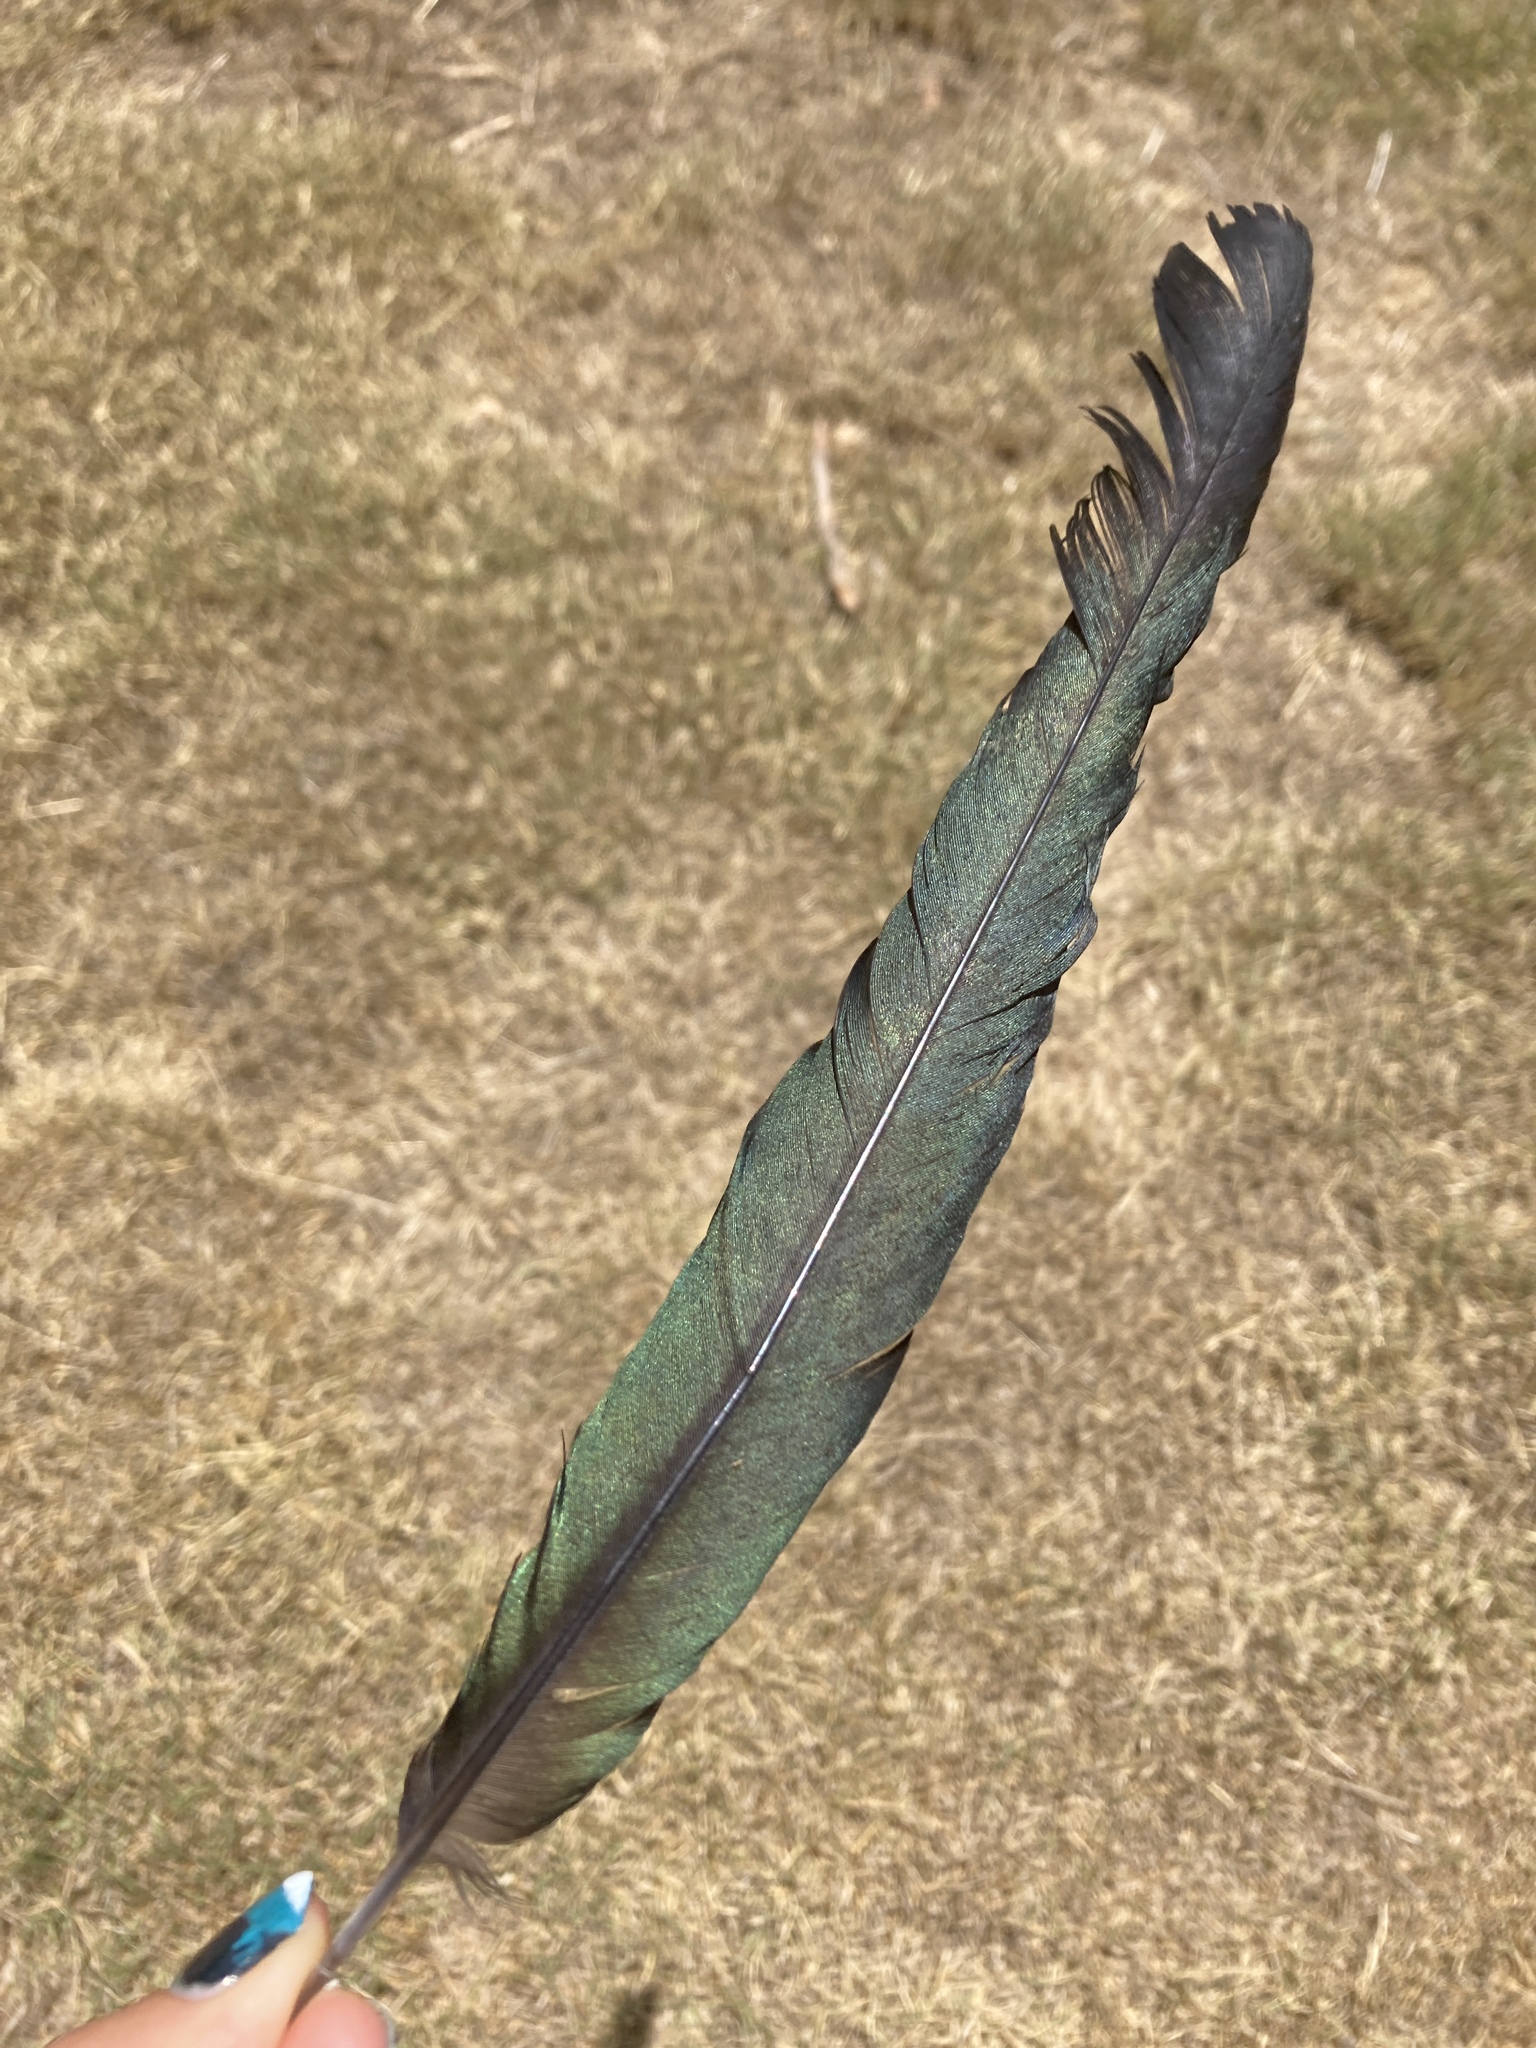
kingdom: Animalia
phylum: Chordata
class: Aves
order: Passeriformes
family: Corvidae
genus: Pica
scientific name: Pica pica
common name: Eurasian magpie
